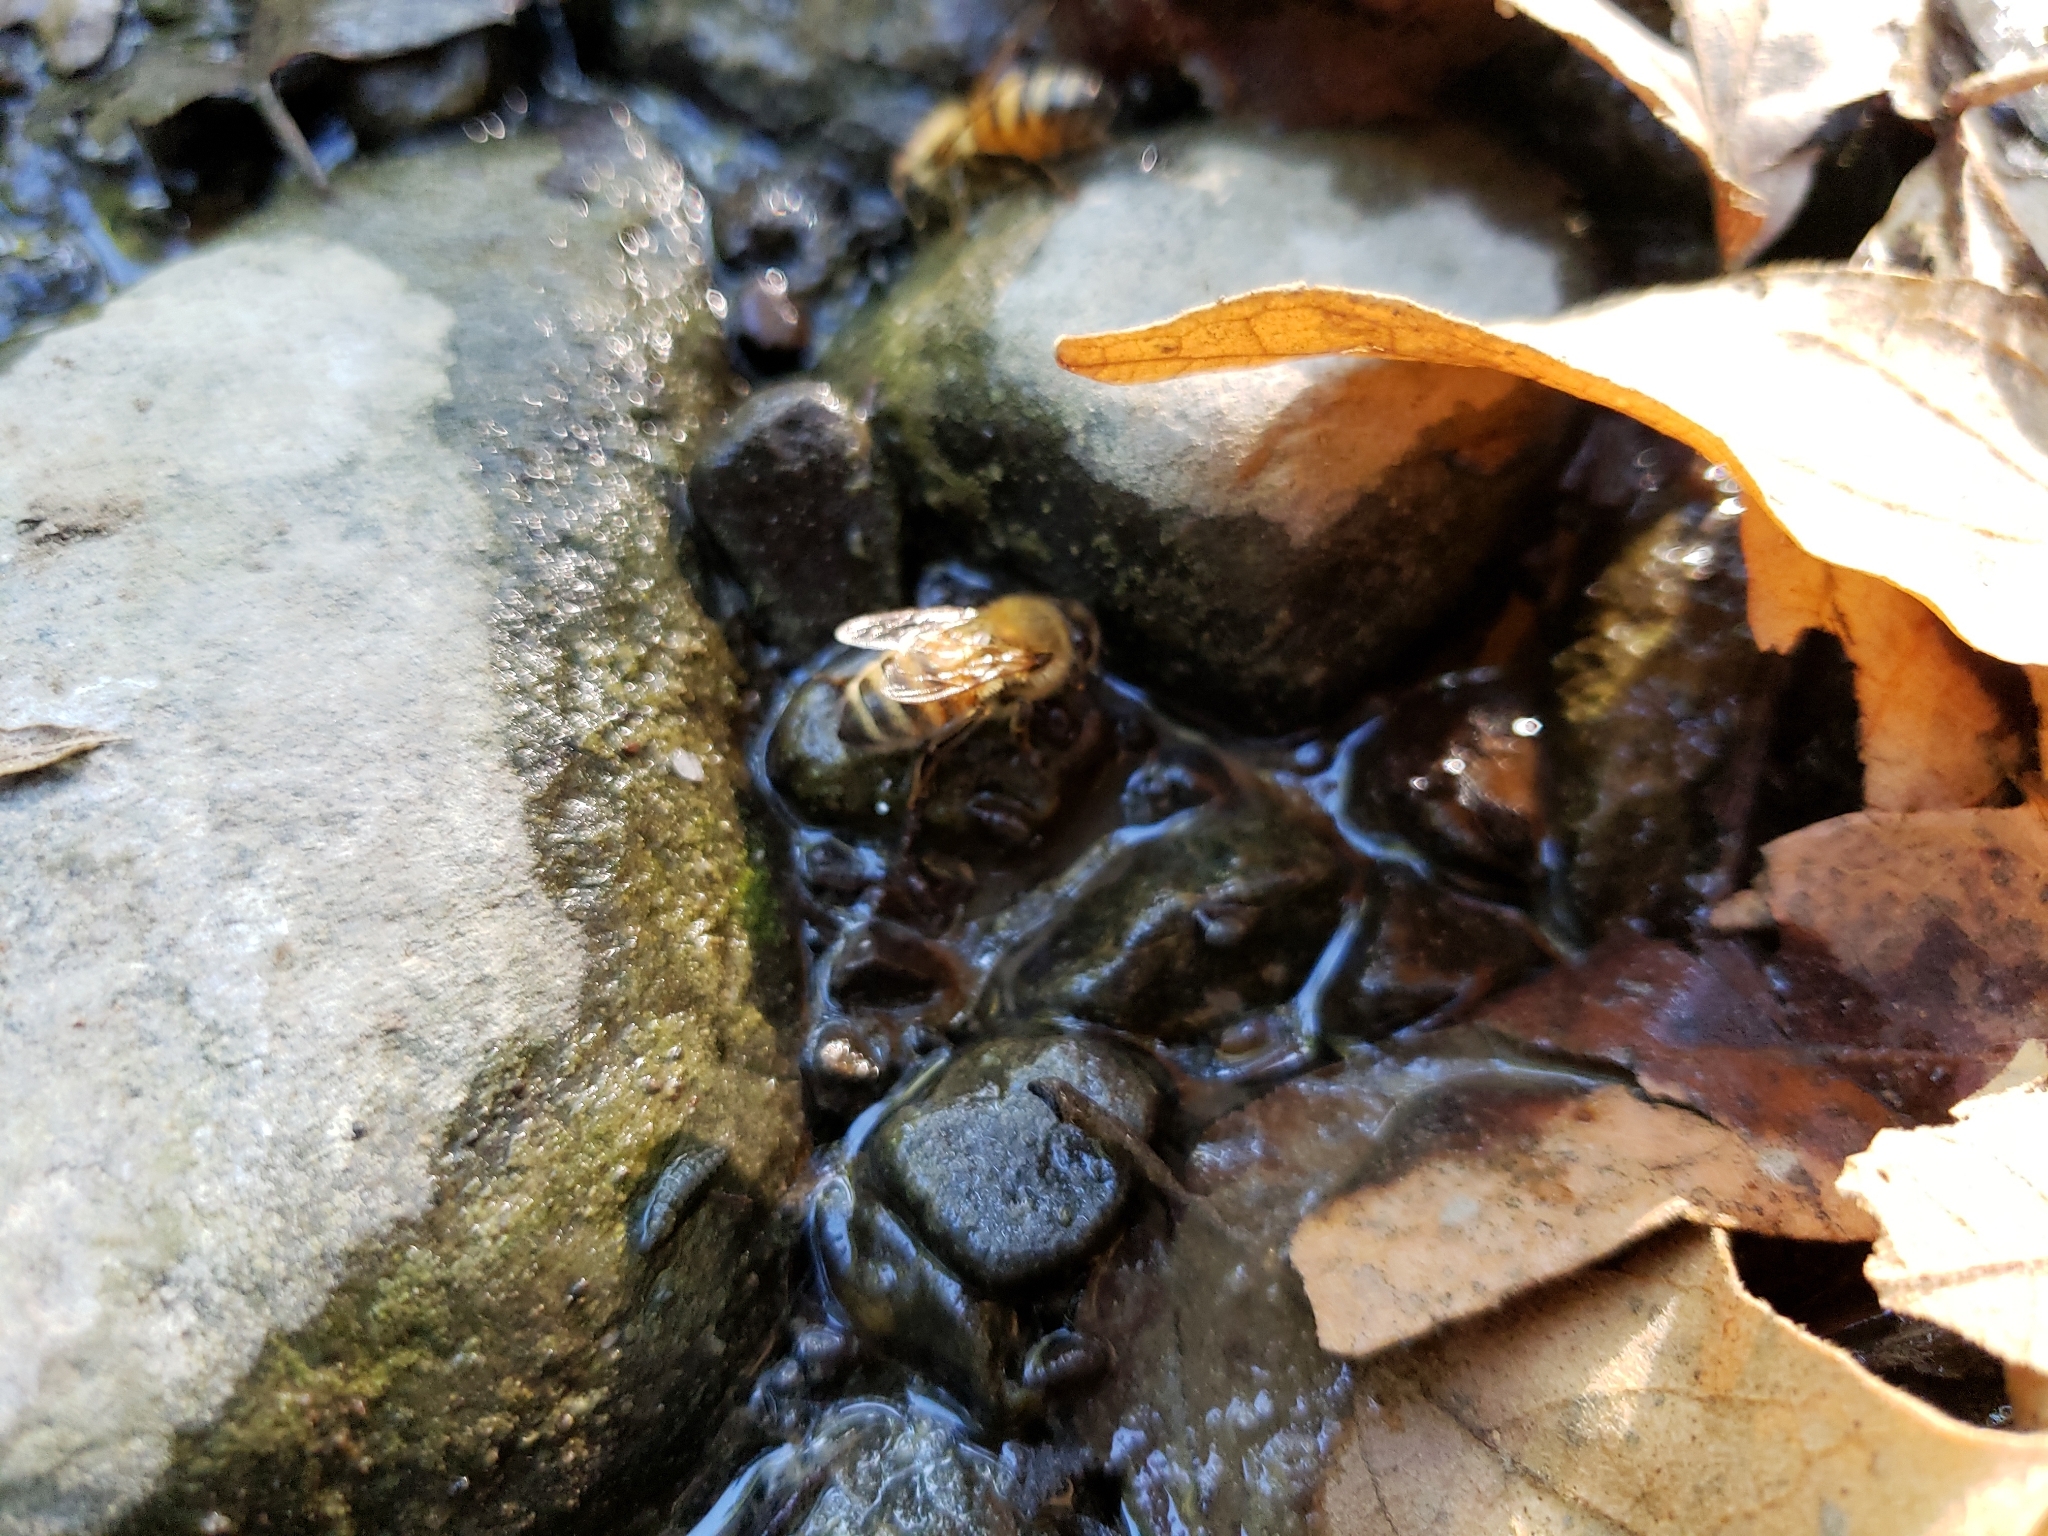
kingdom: Animalia
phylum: Arthropoda
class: Insecta
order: Hymenoptera
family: Apidae
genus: Apis
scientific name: Apis mellifera
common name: Honey bee
